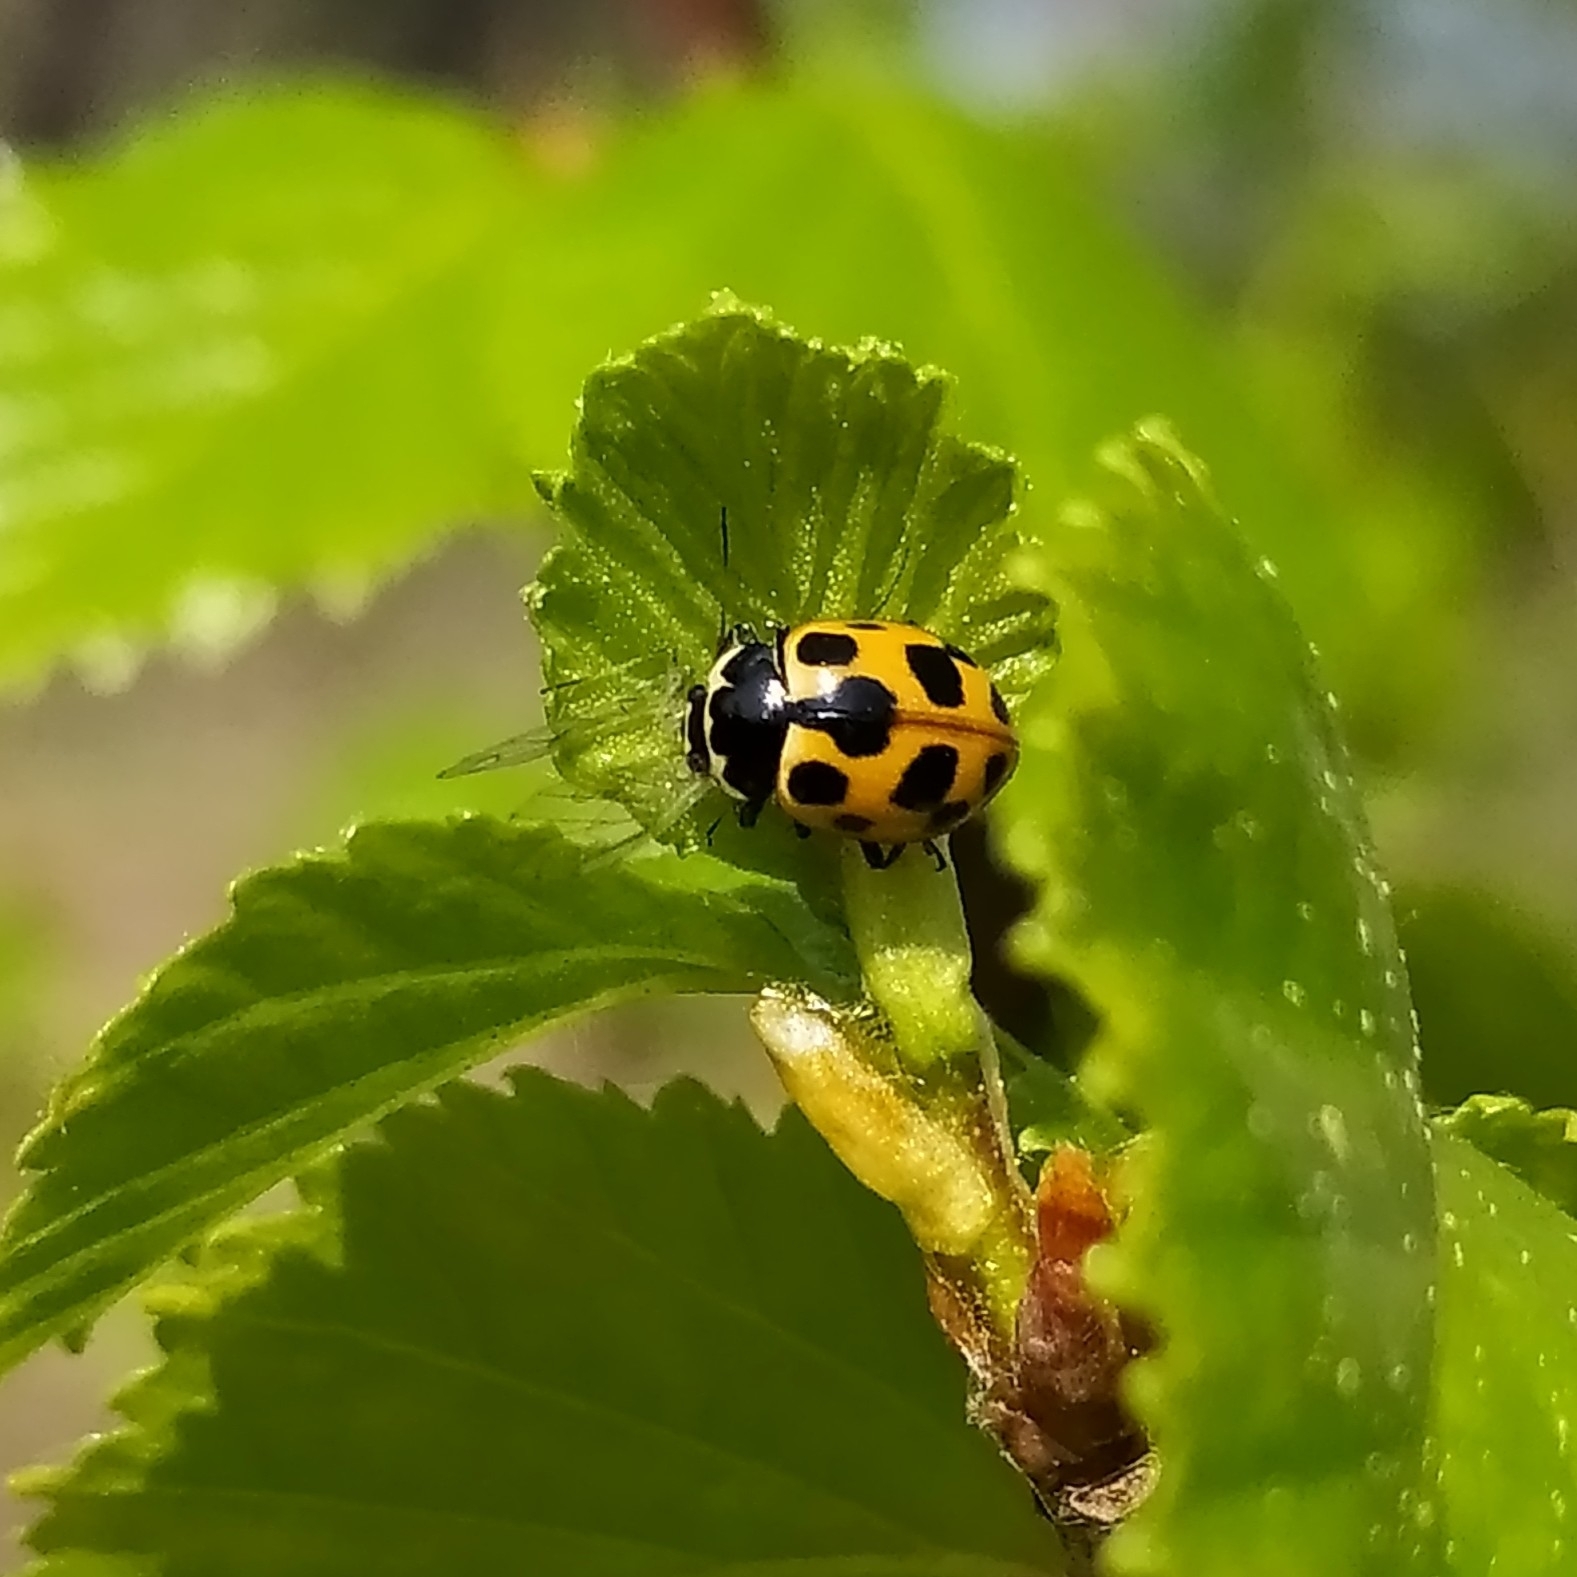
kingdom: Animalia
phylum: Arthropoda
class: Insecta
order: Coleoptera
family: Coccinellidae
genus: Ceratomegilla
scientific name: Ceratomegilla notata
